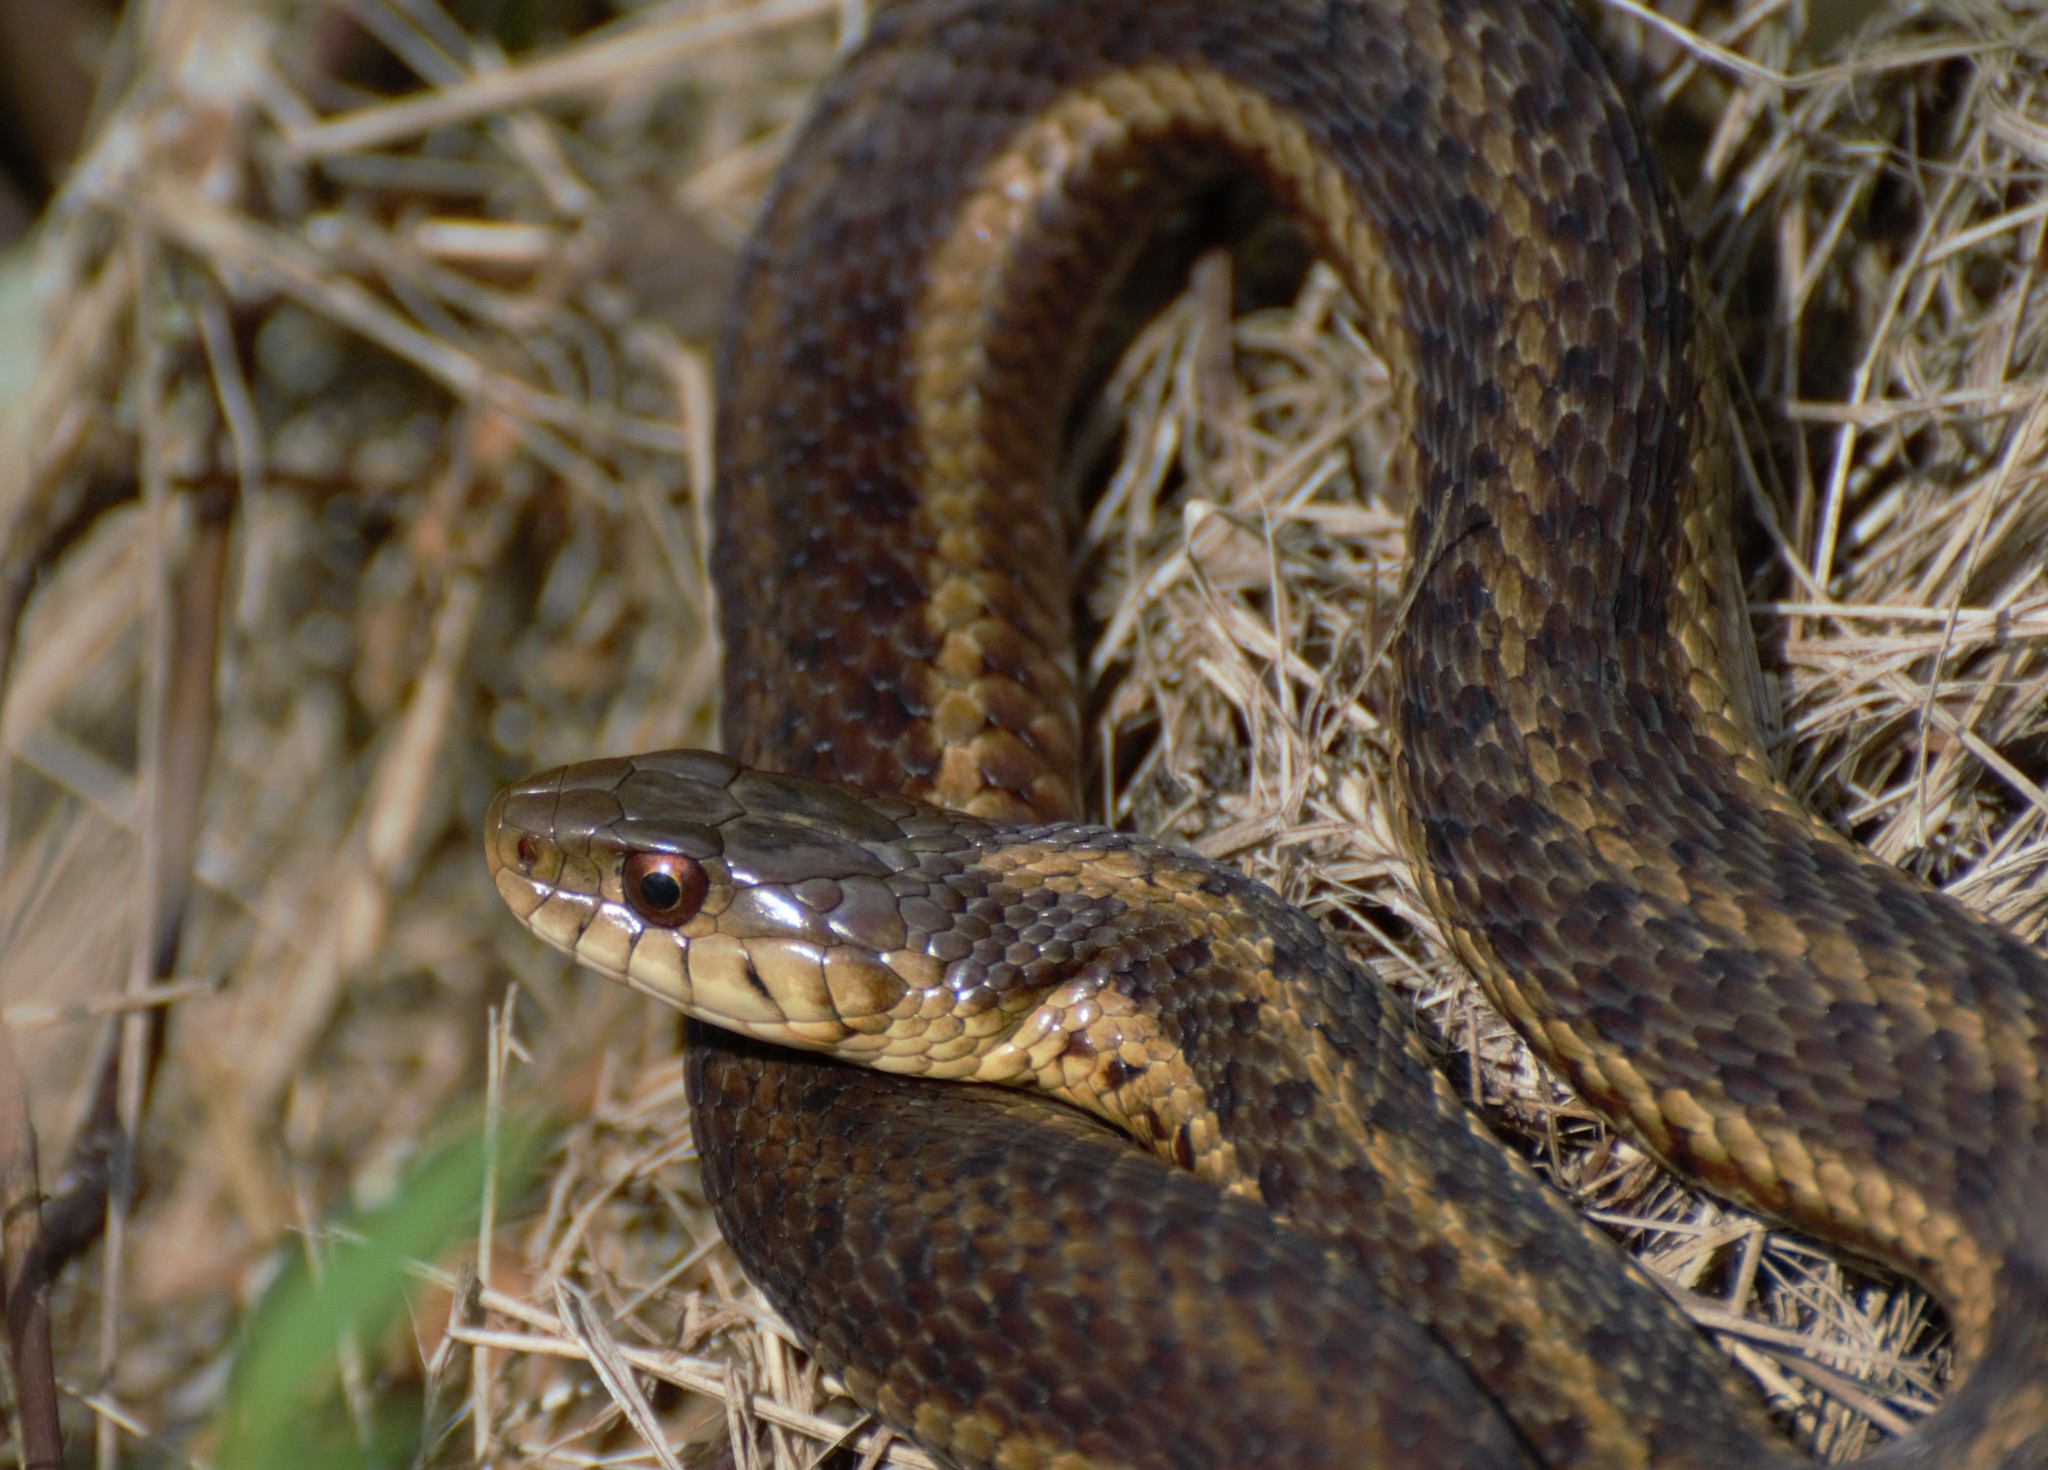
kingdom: Animalia
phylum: Chordata
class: Squamata
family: Colubridae
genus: Thamnophis
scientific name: Thamnophis sirtalis
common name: Common garter snake
